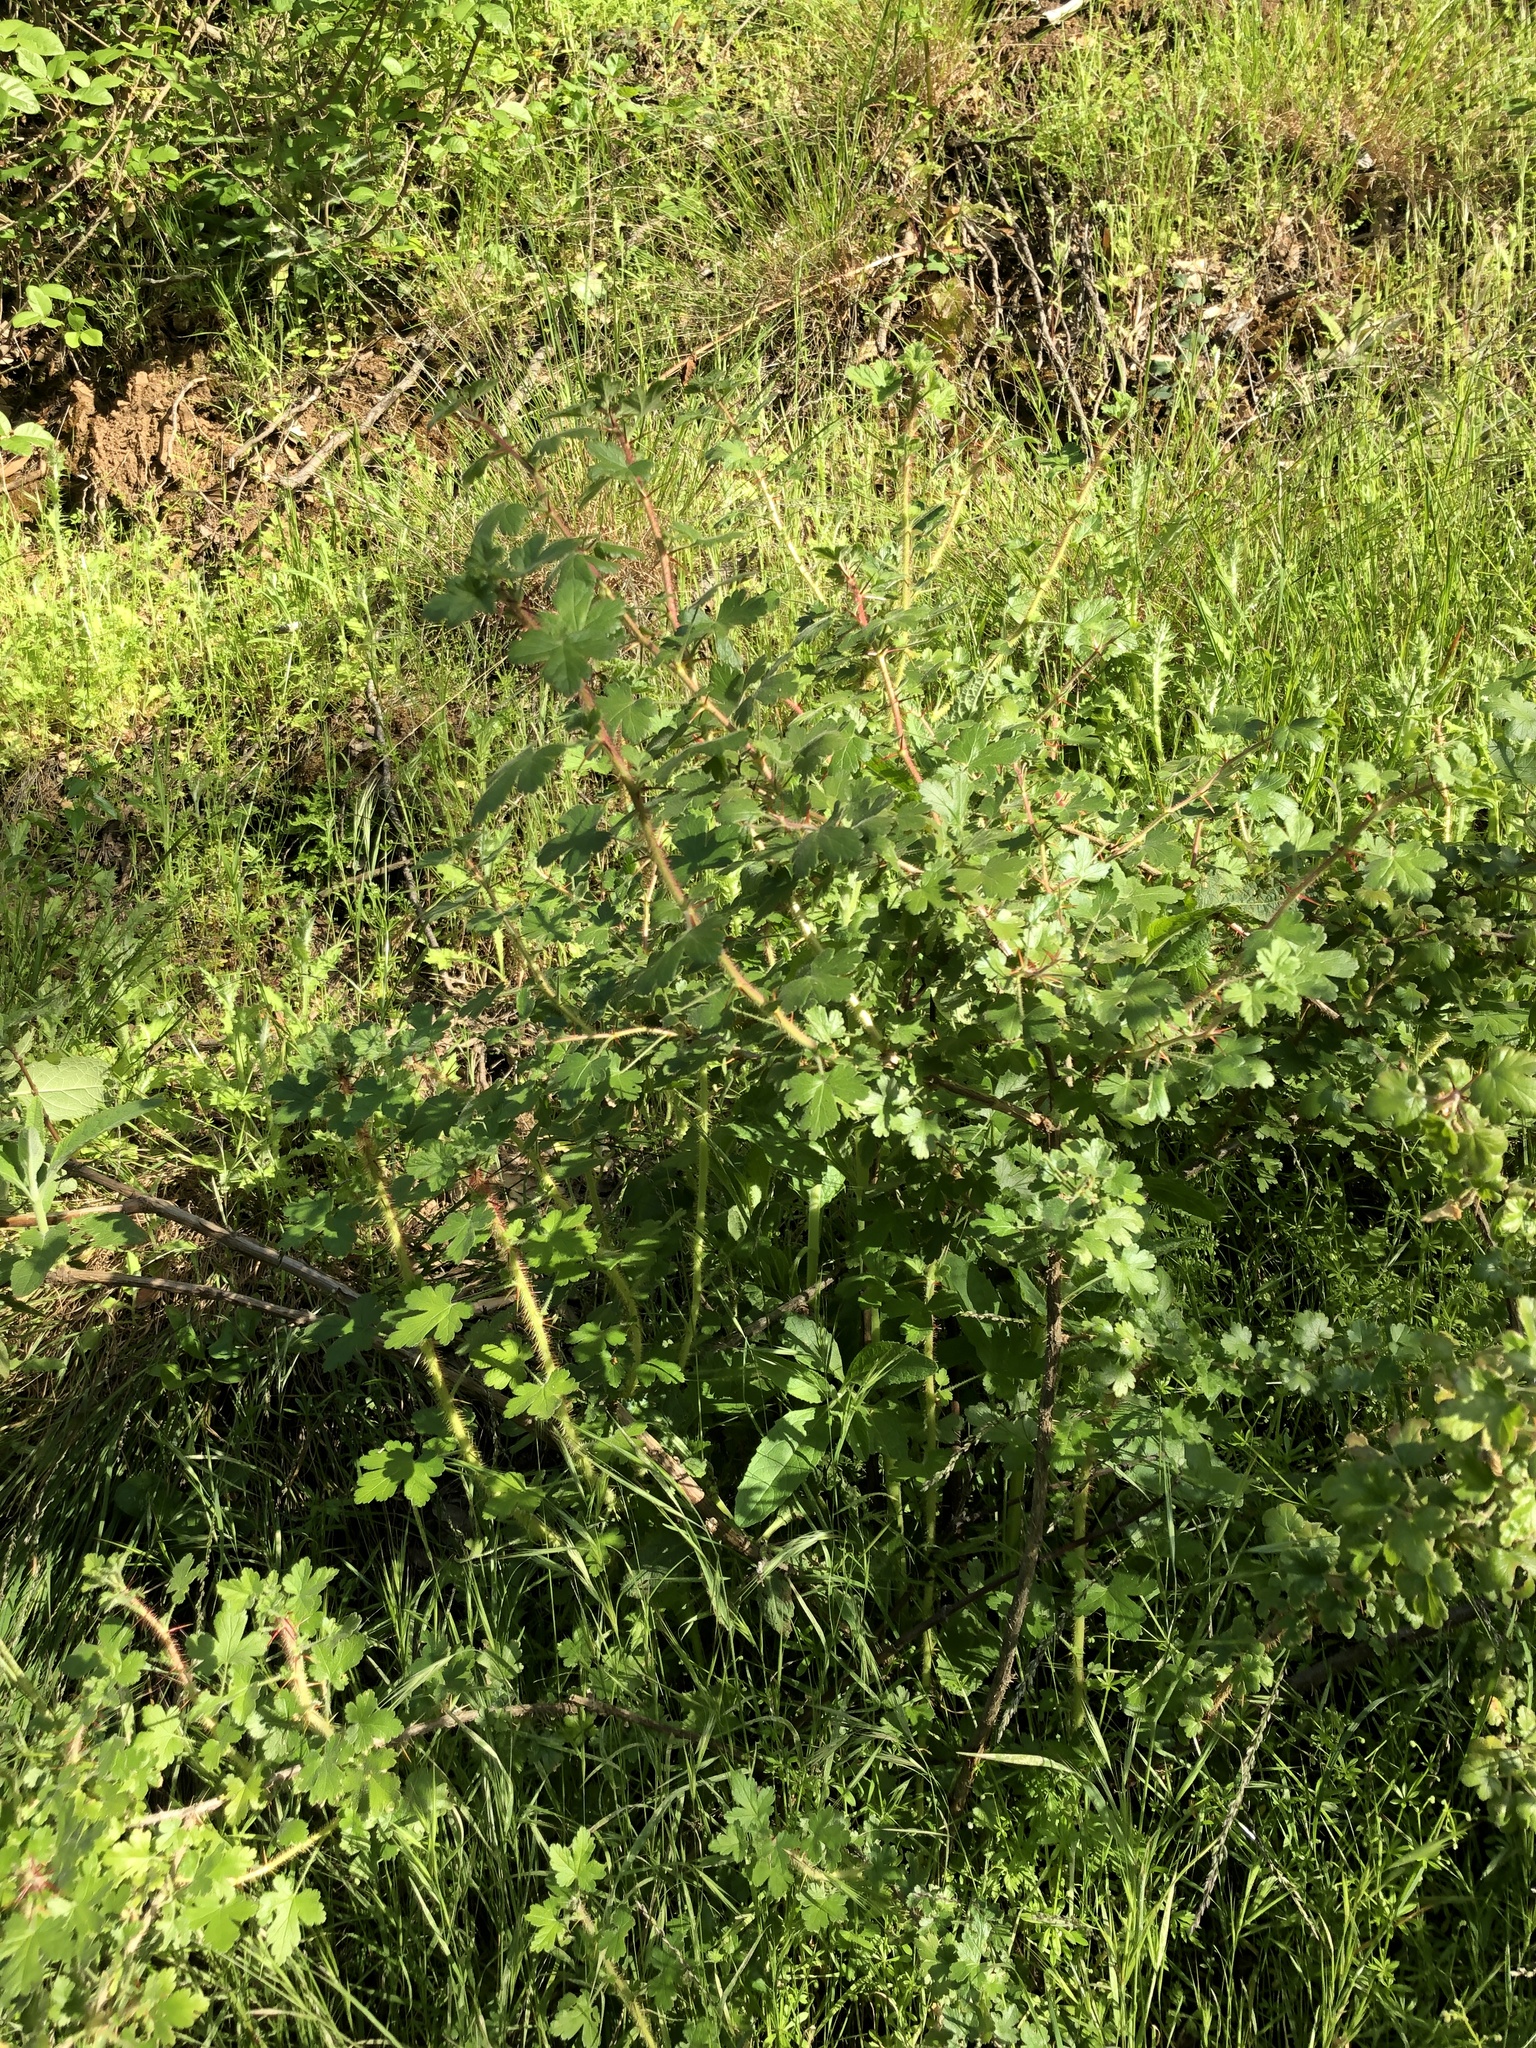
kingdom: Plantae
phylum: Tracheophyta
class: Magnoliopsida
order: Saxifragales
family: Grossulariaceae
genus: Ribes
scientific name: Ribes menziesii
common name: Canyon gooseberry
